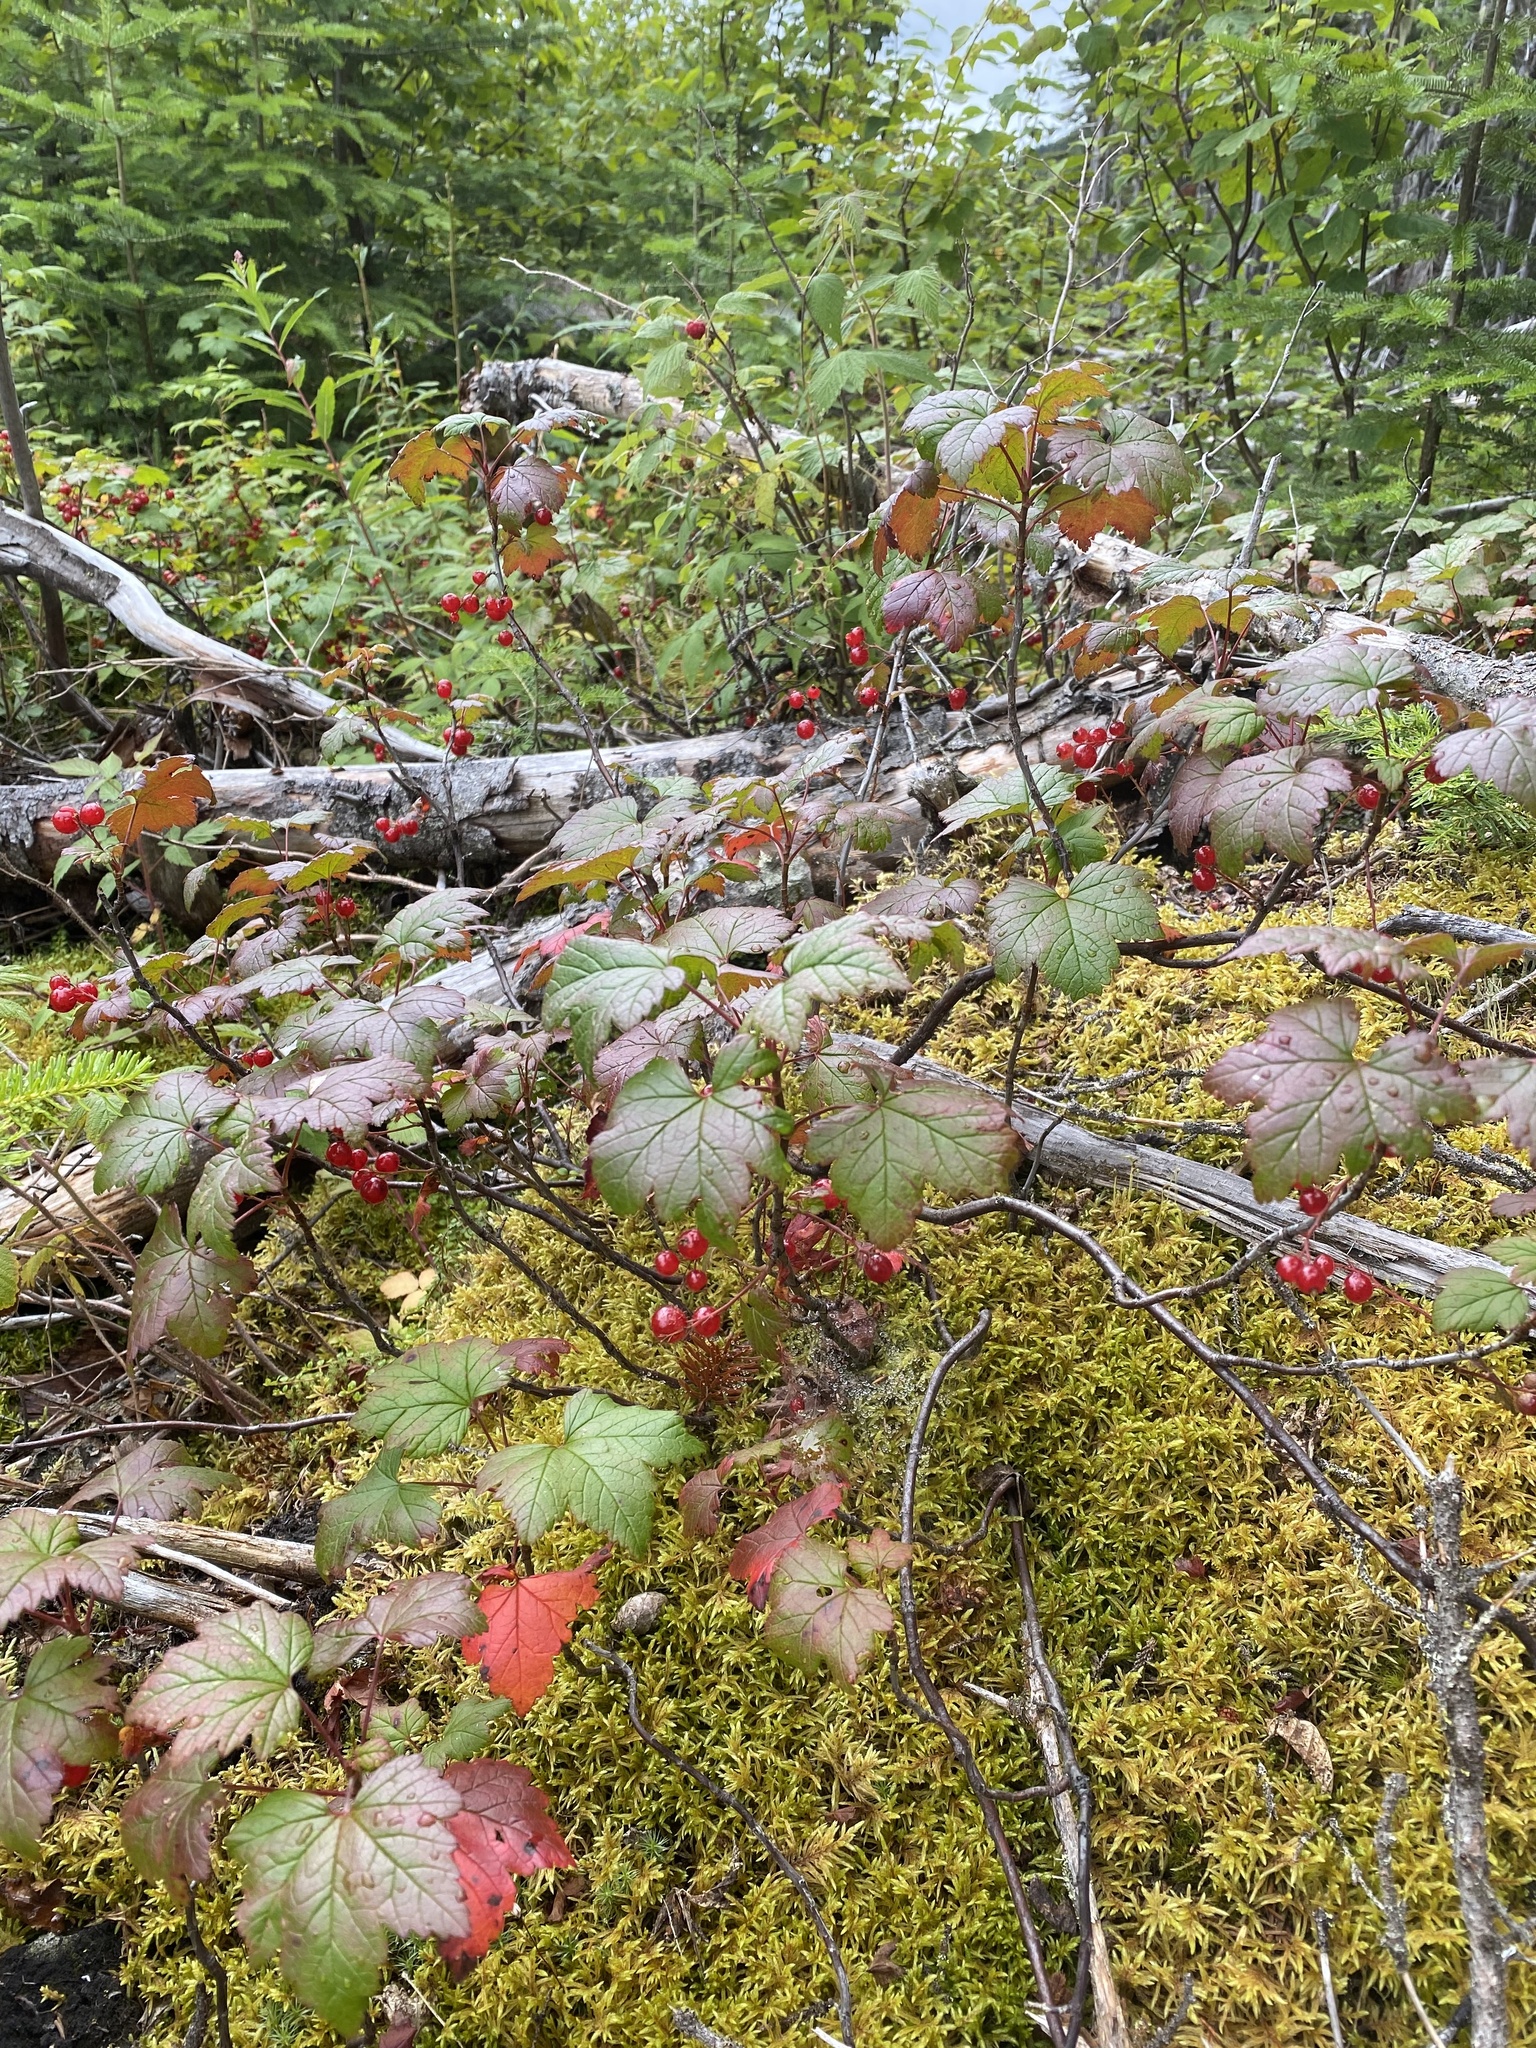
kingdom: Plantae
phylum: Tracheophyta
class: Magnoliopsida
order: Saxifragales
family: Grossulariaceae
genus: Ribes
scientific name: Ribes glandulosum
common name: Skunk currant
